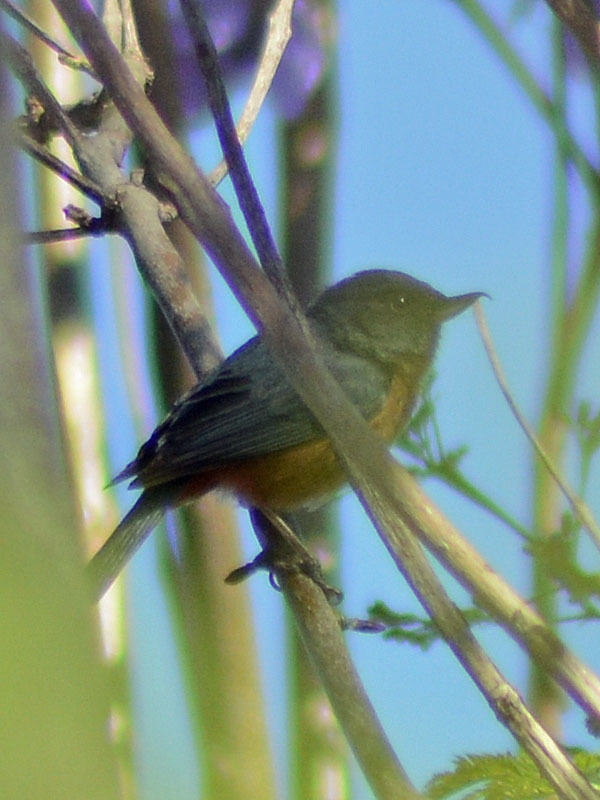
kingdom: Animalia
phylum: Chordata
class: Aves
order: Passeriformes
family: Thraupidae
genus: Diglossa
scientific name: Diglossa baritula
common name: Cinnamon-bellied flowerpiercer
